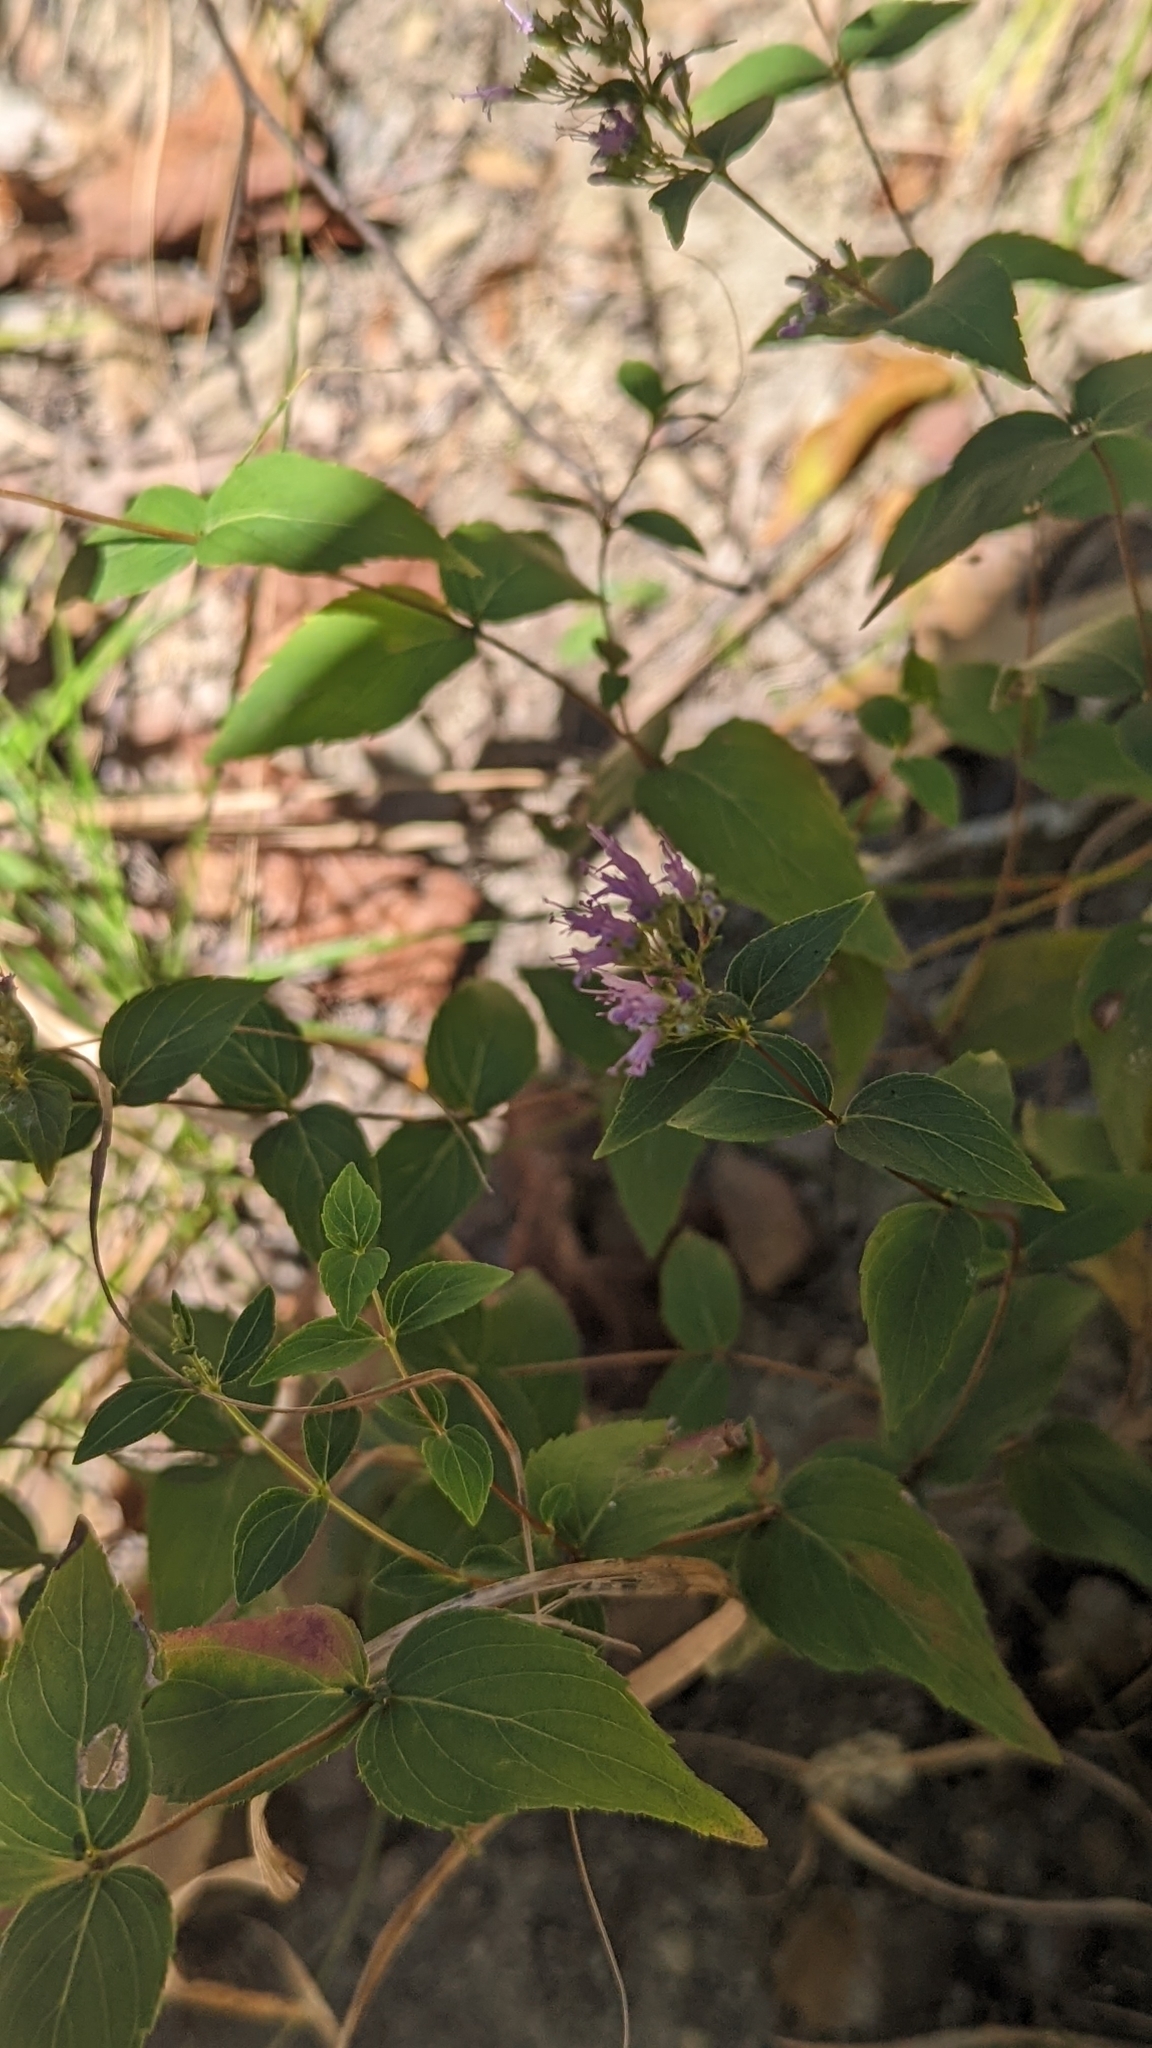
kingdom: Plantae
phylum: Tracheophyta
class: Magnoliopsida
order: Lamiales
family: Lamiaceae
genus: Cunila
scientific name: Cunila origanoides
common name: American dittany
